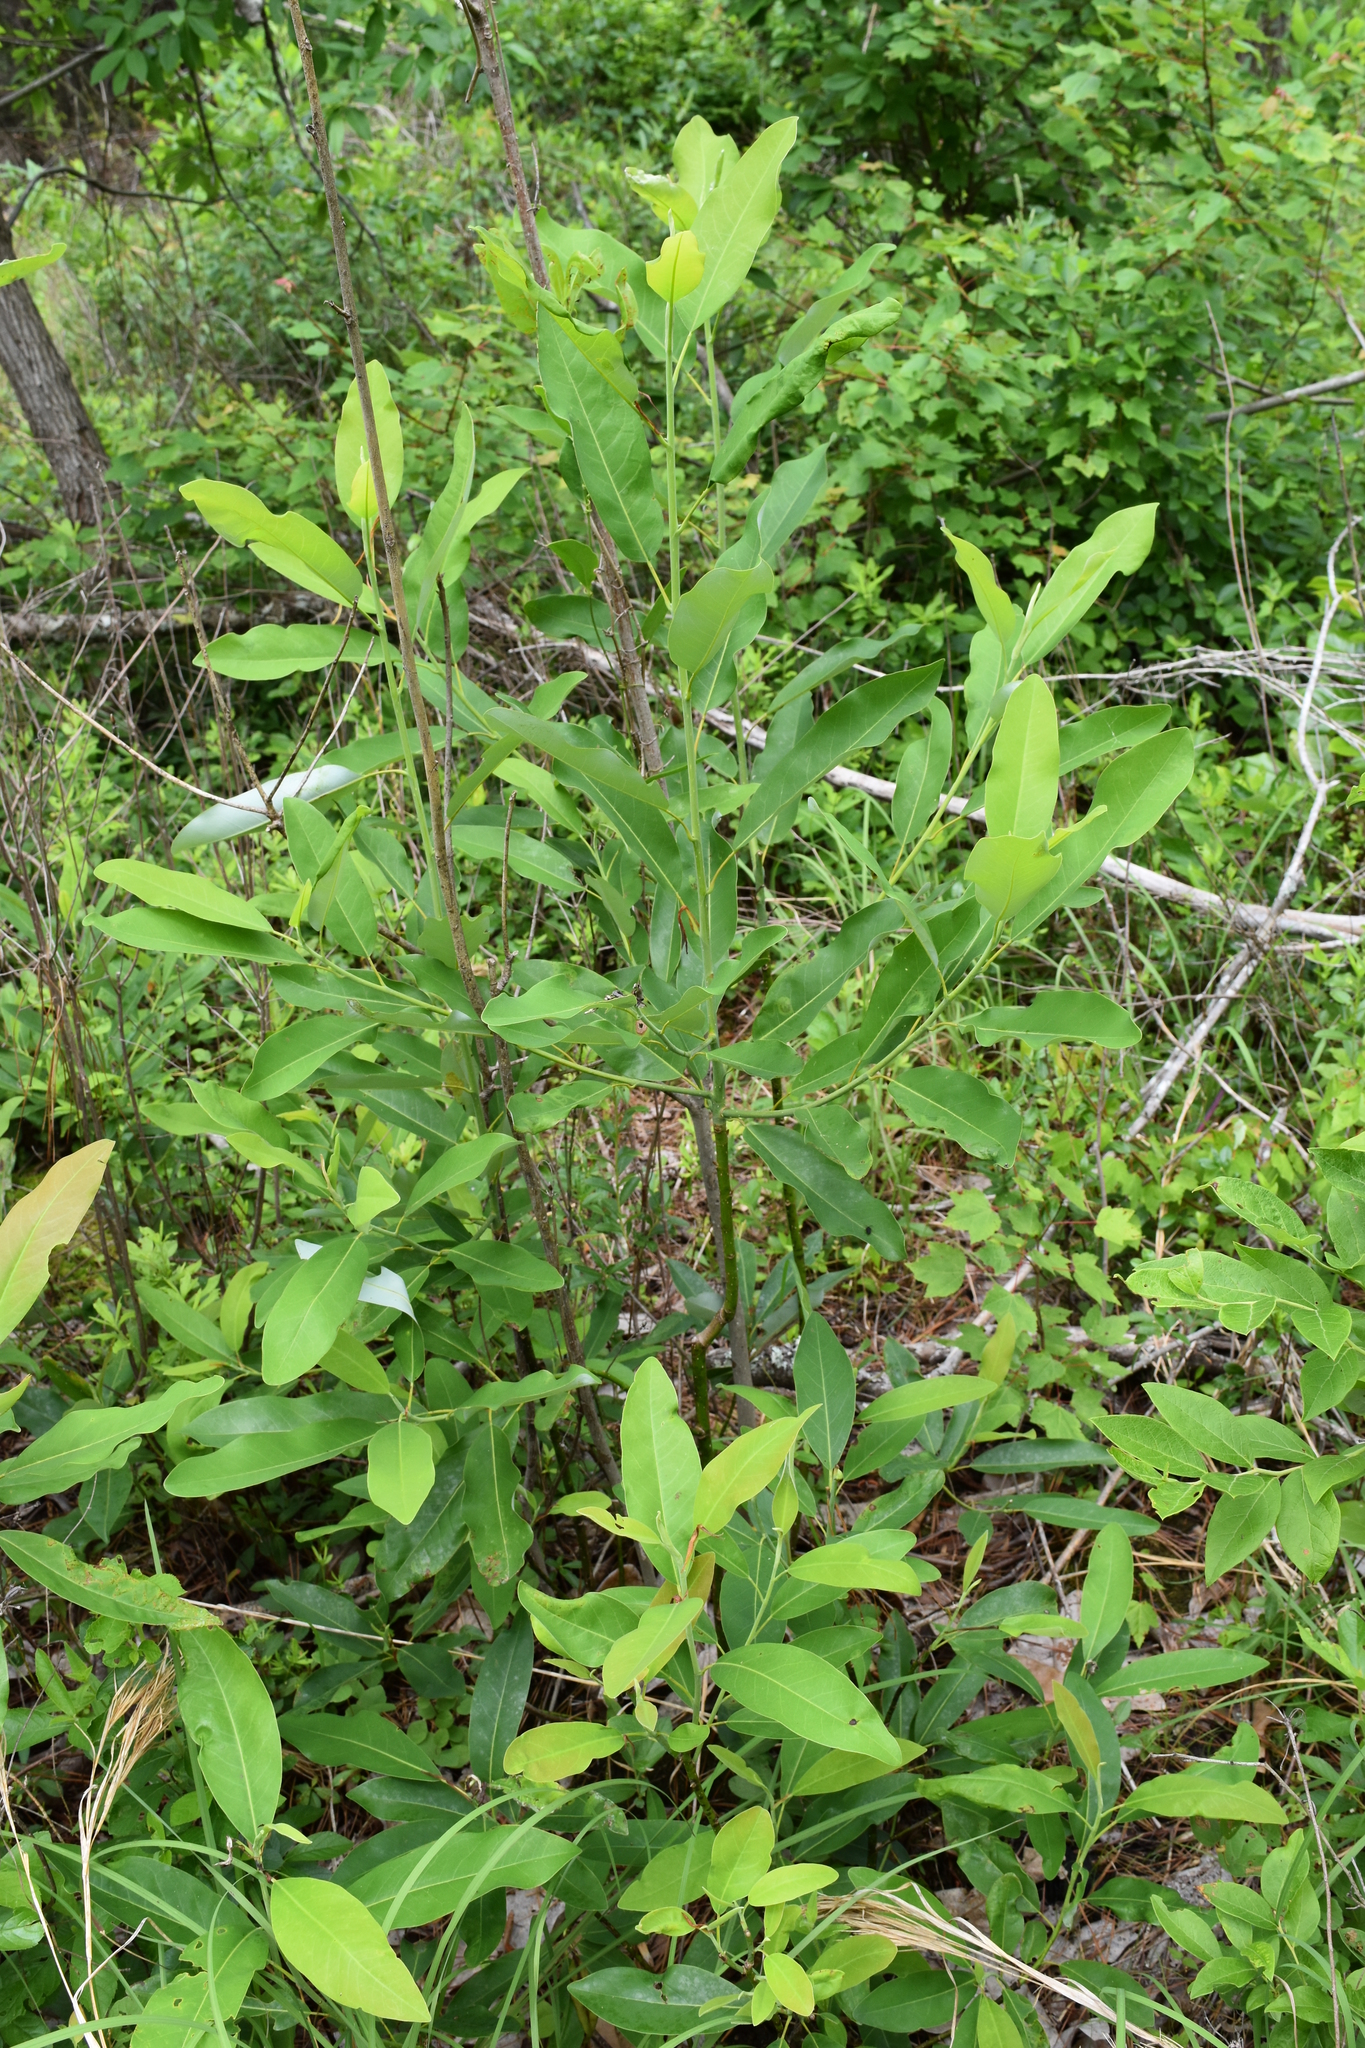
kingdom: Plantae
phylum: Tracheophyta
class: Magnoliopsida
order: Magnoliales
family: Magnoliaceae
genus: Magnolia
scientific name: Magnolia virginiana
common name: Swamp bay
